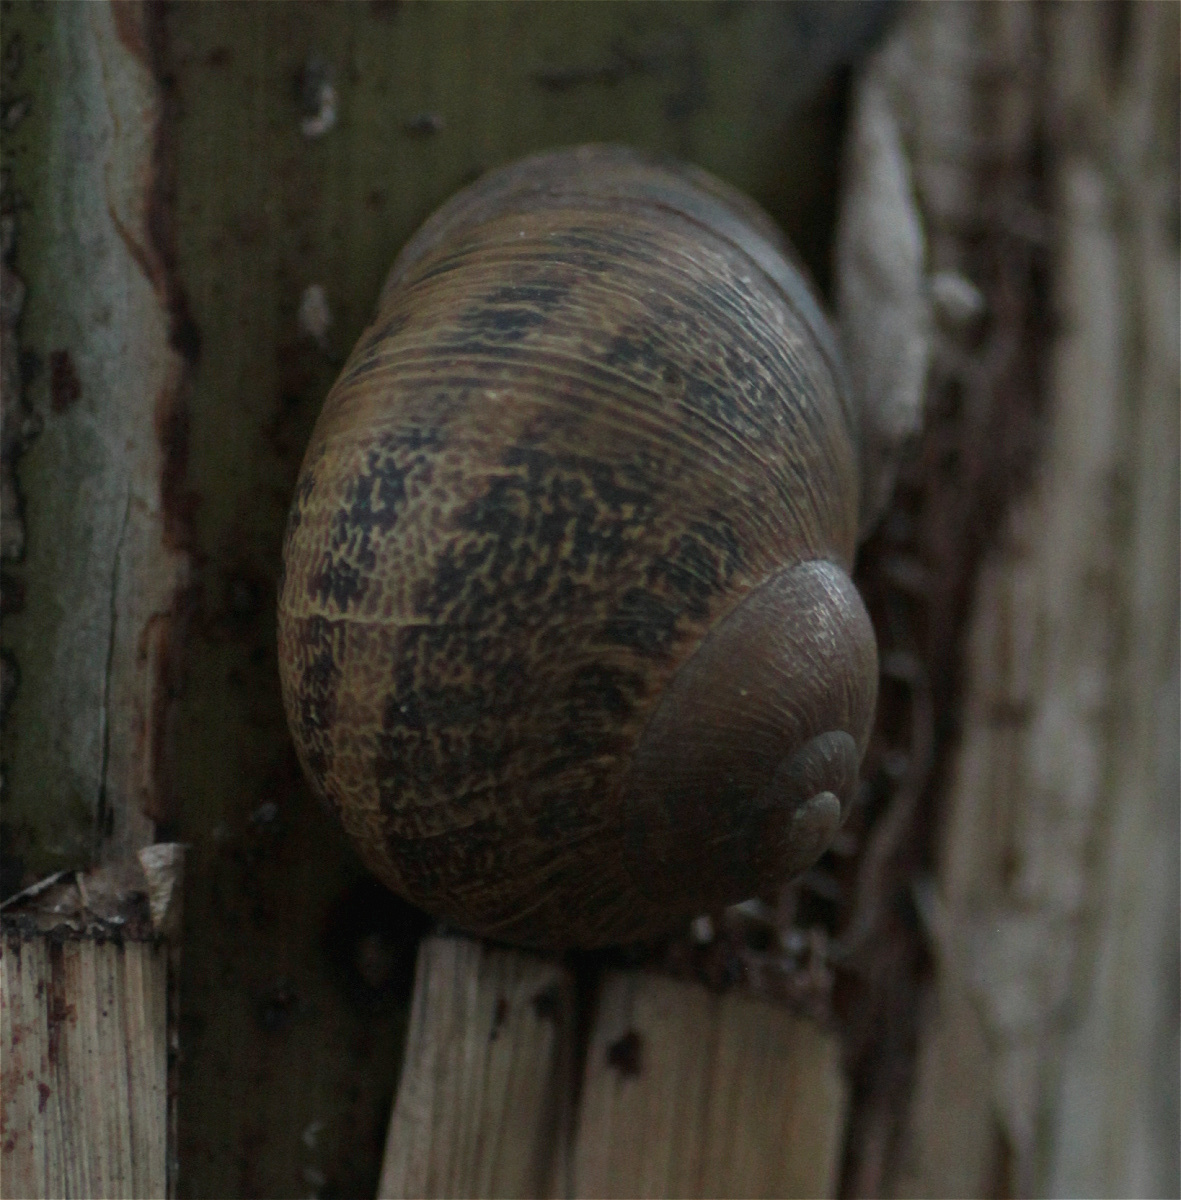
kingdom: Animalia
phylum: Mollusca
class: Gastropoda
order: Stylommatophora
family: Helicidae
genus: Cornu
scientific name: Cornu aspersum
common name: Brown garden snail
